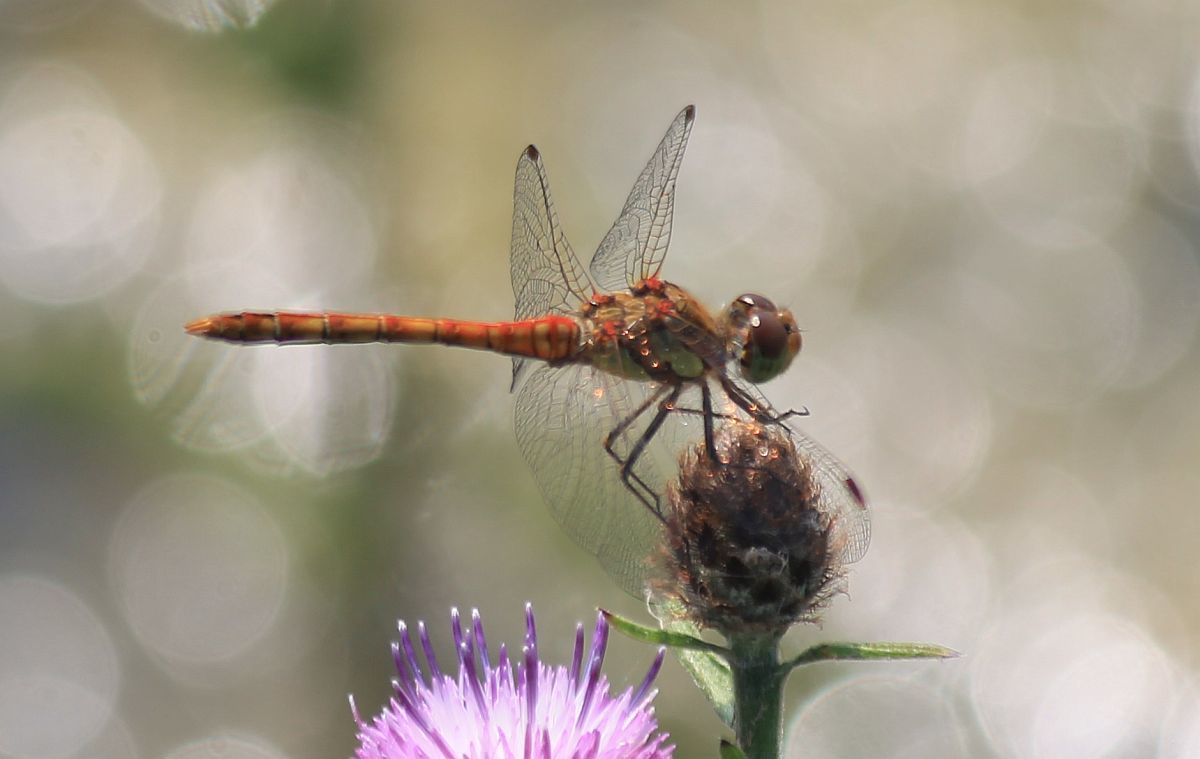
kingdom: Animalia
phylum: Arthropoda
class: Insecta
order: Odonata
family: Libellulidae
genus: Sympetrum
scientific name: Sympetrum striolatum
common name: Common darter
